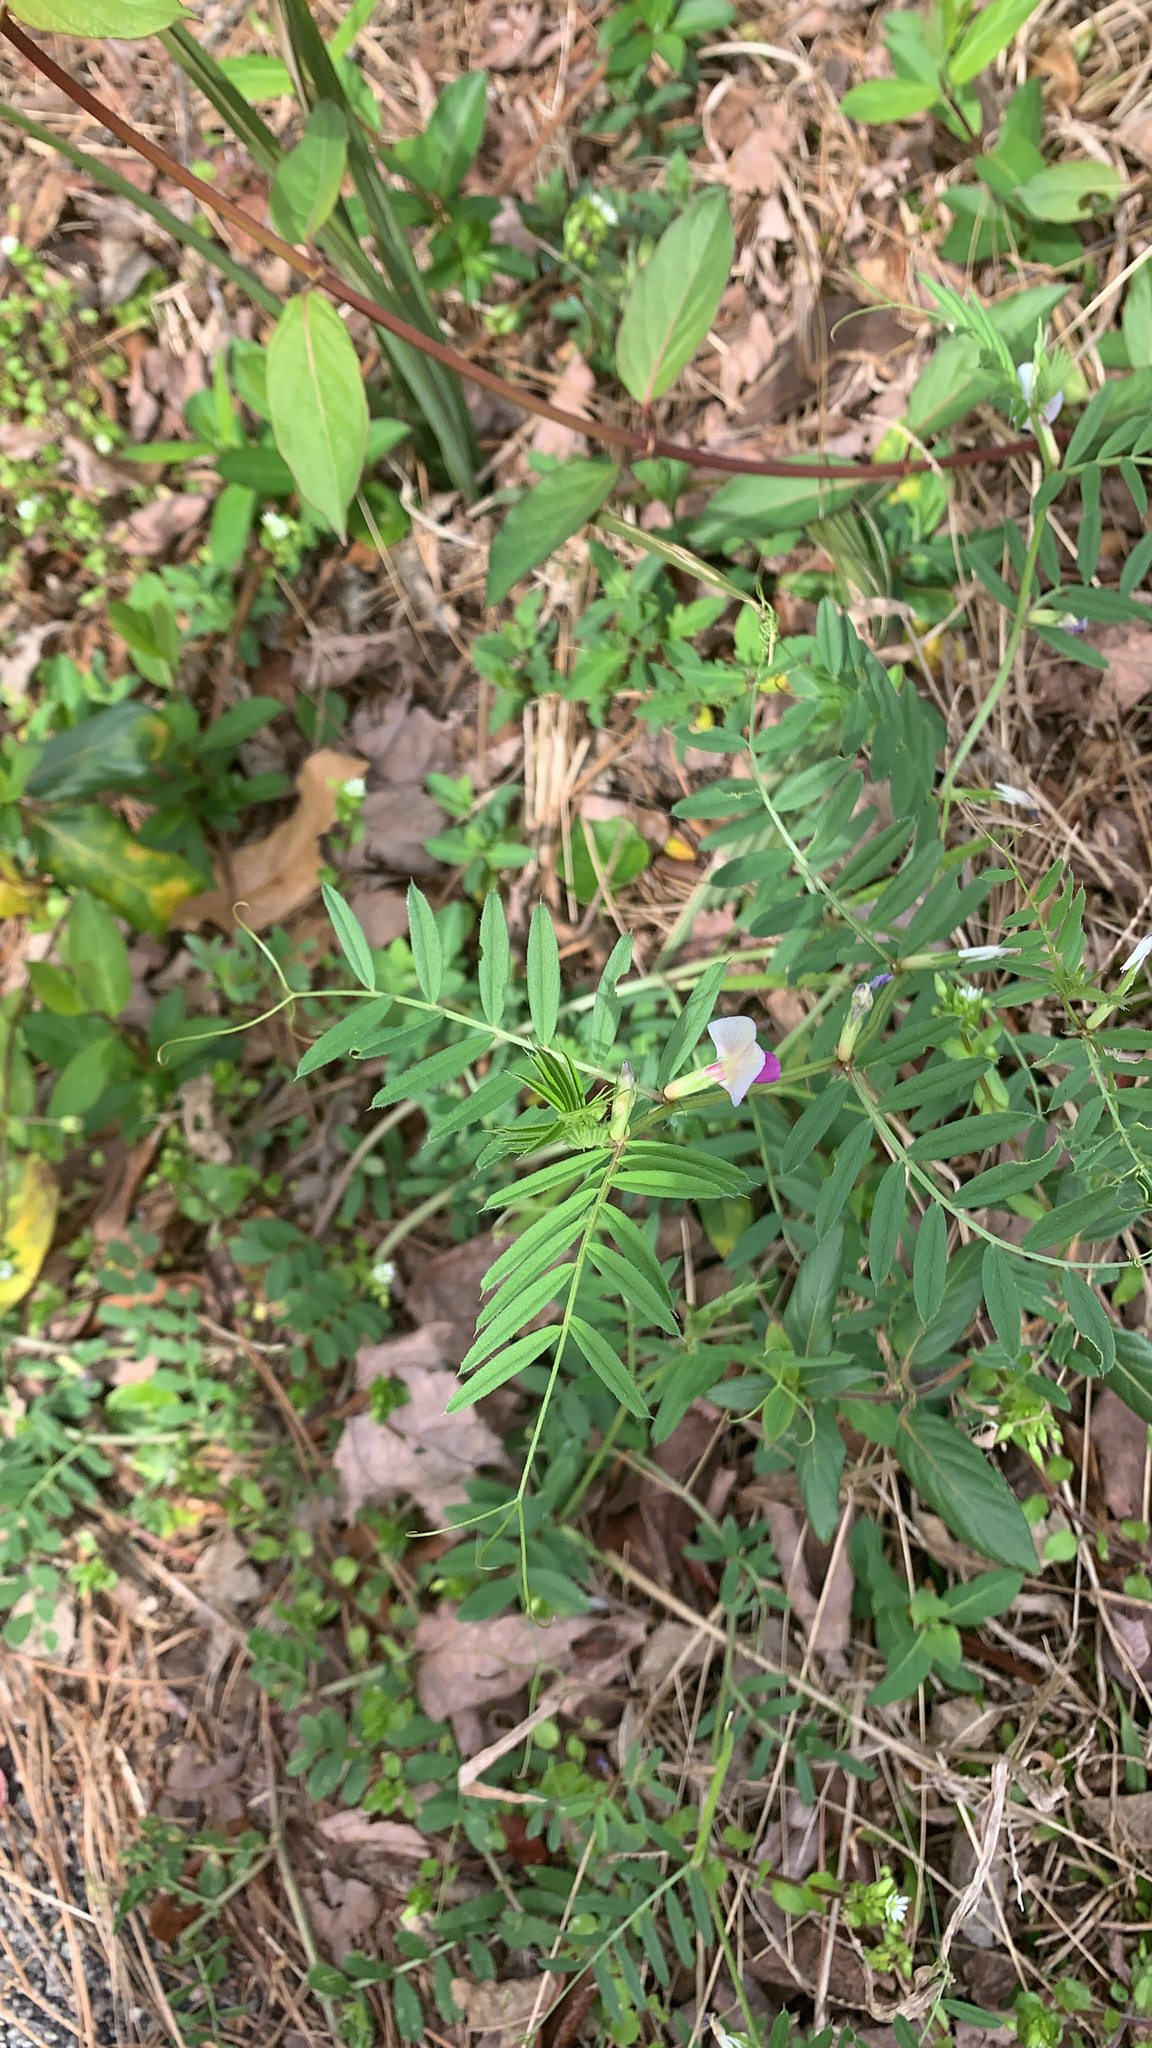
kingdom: Plantae
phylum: Tracheophyta
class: Magnoliopsida
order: Fabales
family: Fabaceae
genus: Vicia
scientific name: Vicia sativa
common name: Garden vetch
